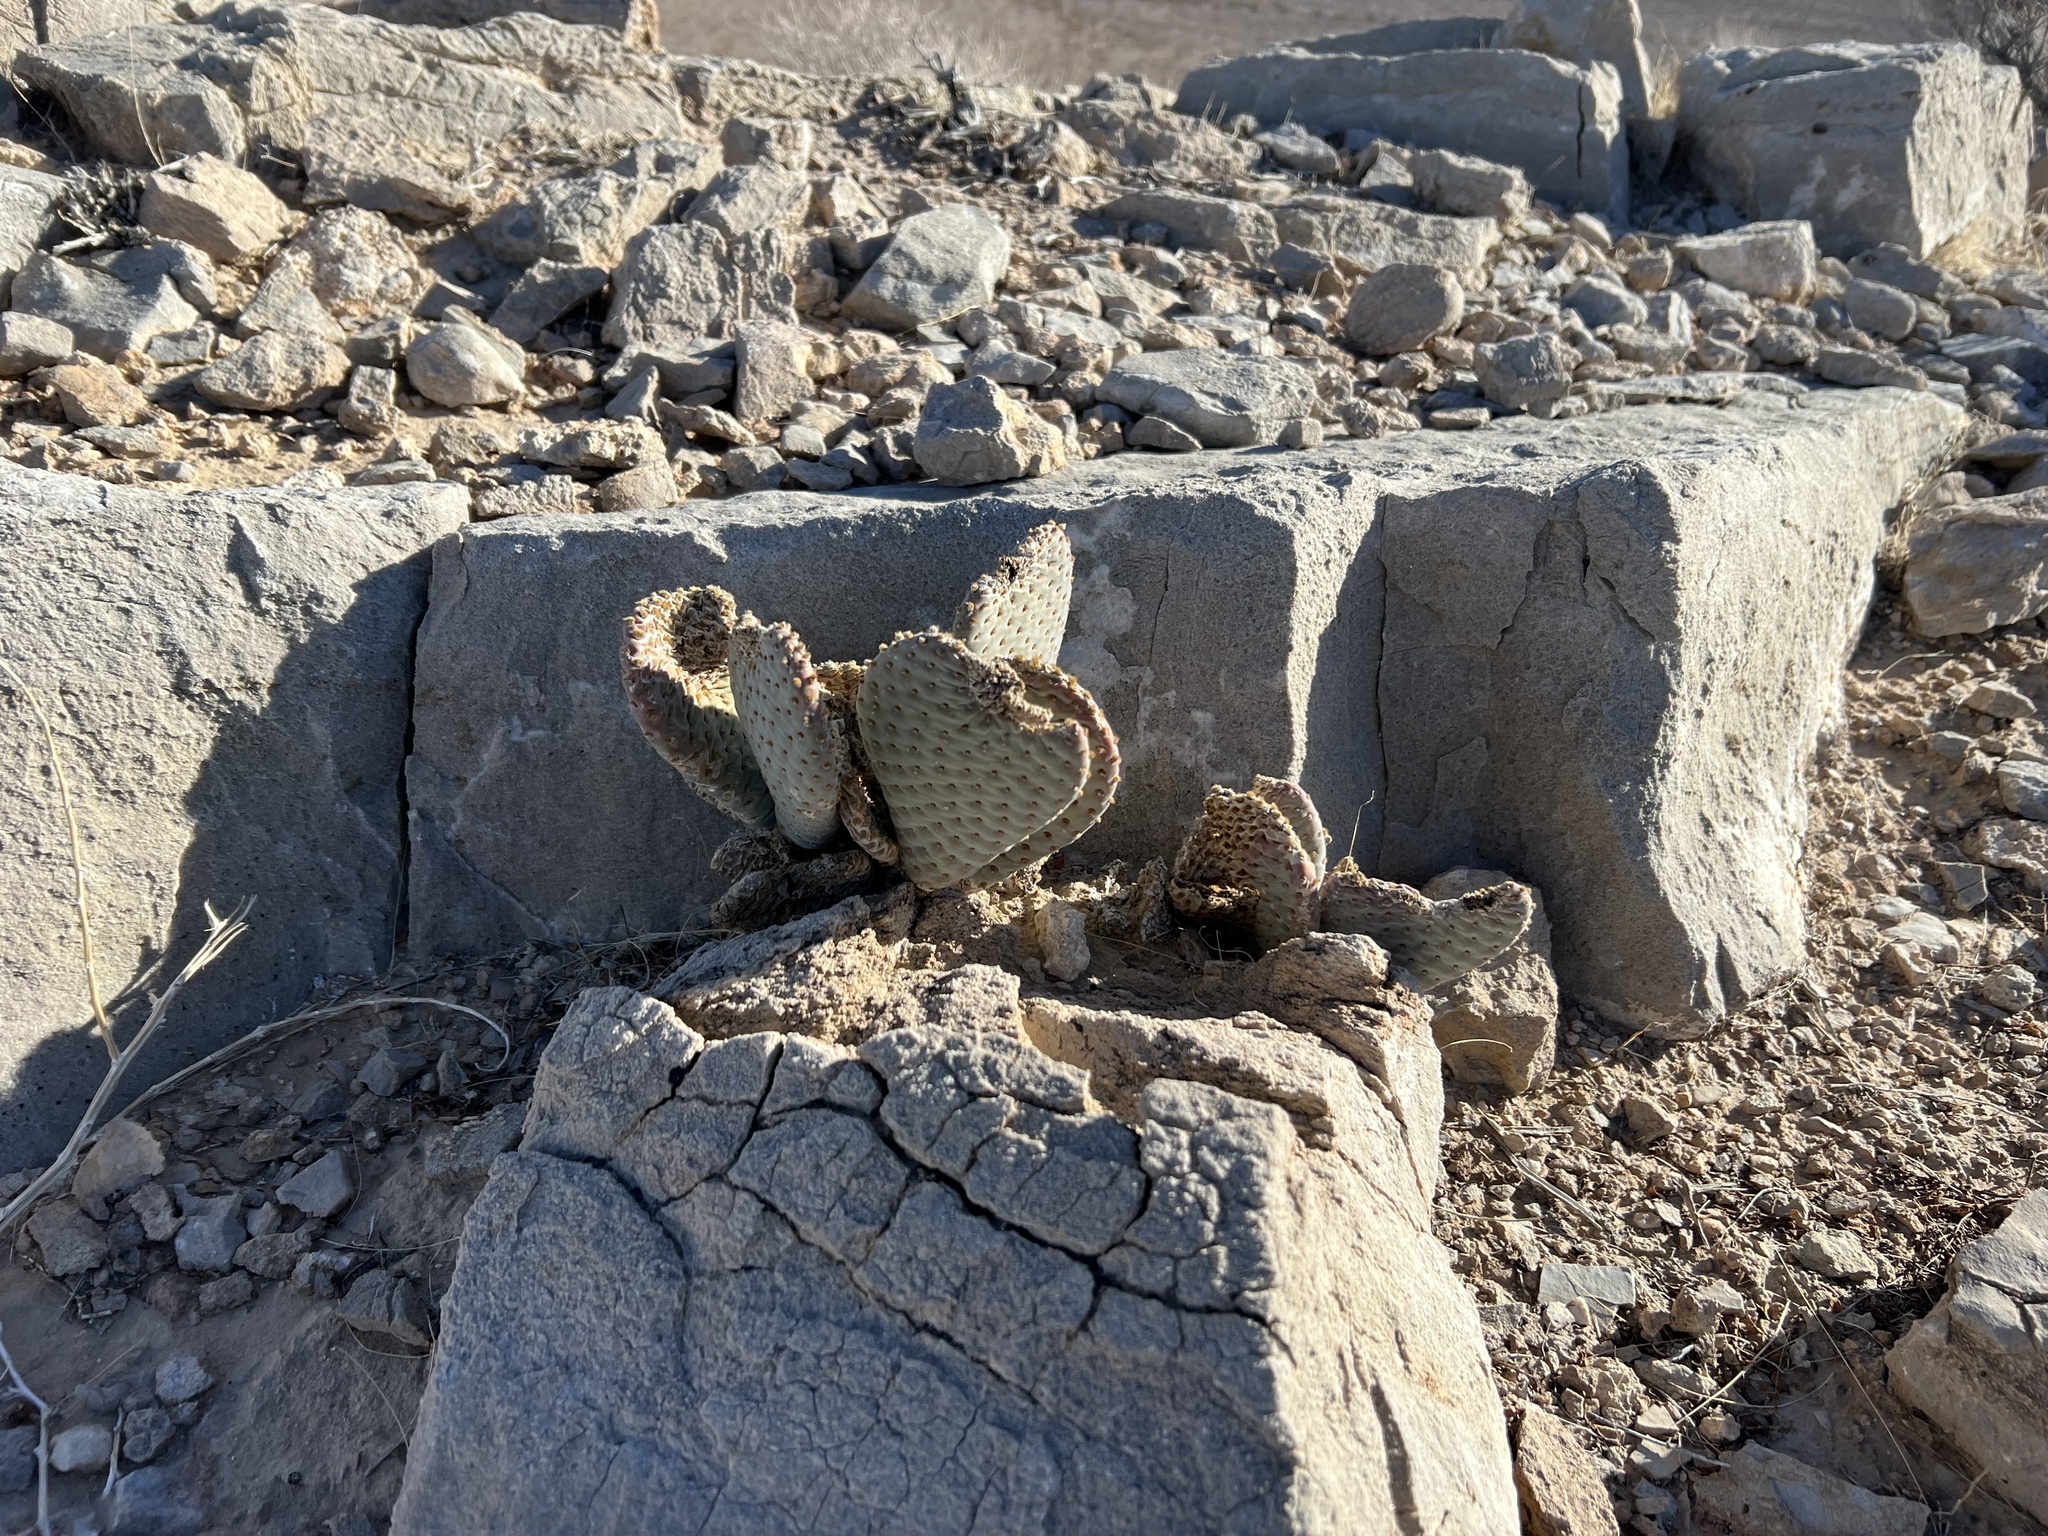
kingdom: Plantae
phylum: Tracheophyta
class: Magnoliopsida
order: Caryophyllales
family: Cactaceae
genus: Opuntia
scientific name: Opuntia basilaris
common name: Beavertail prickly-pear
